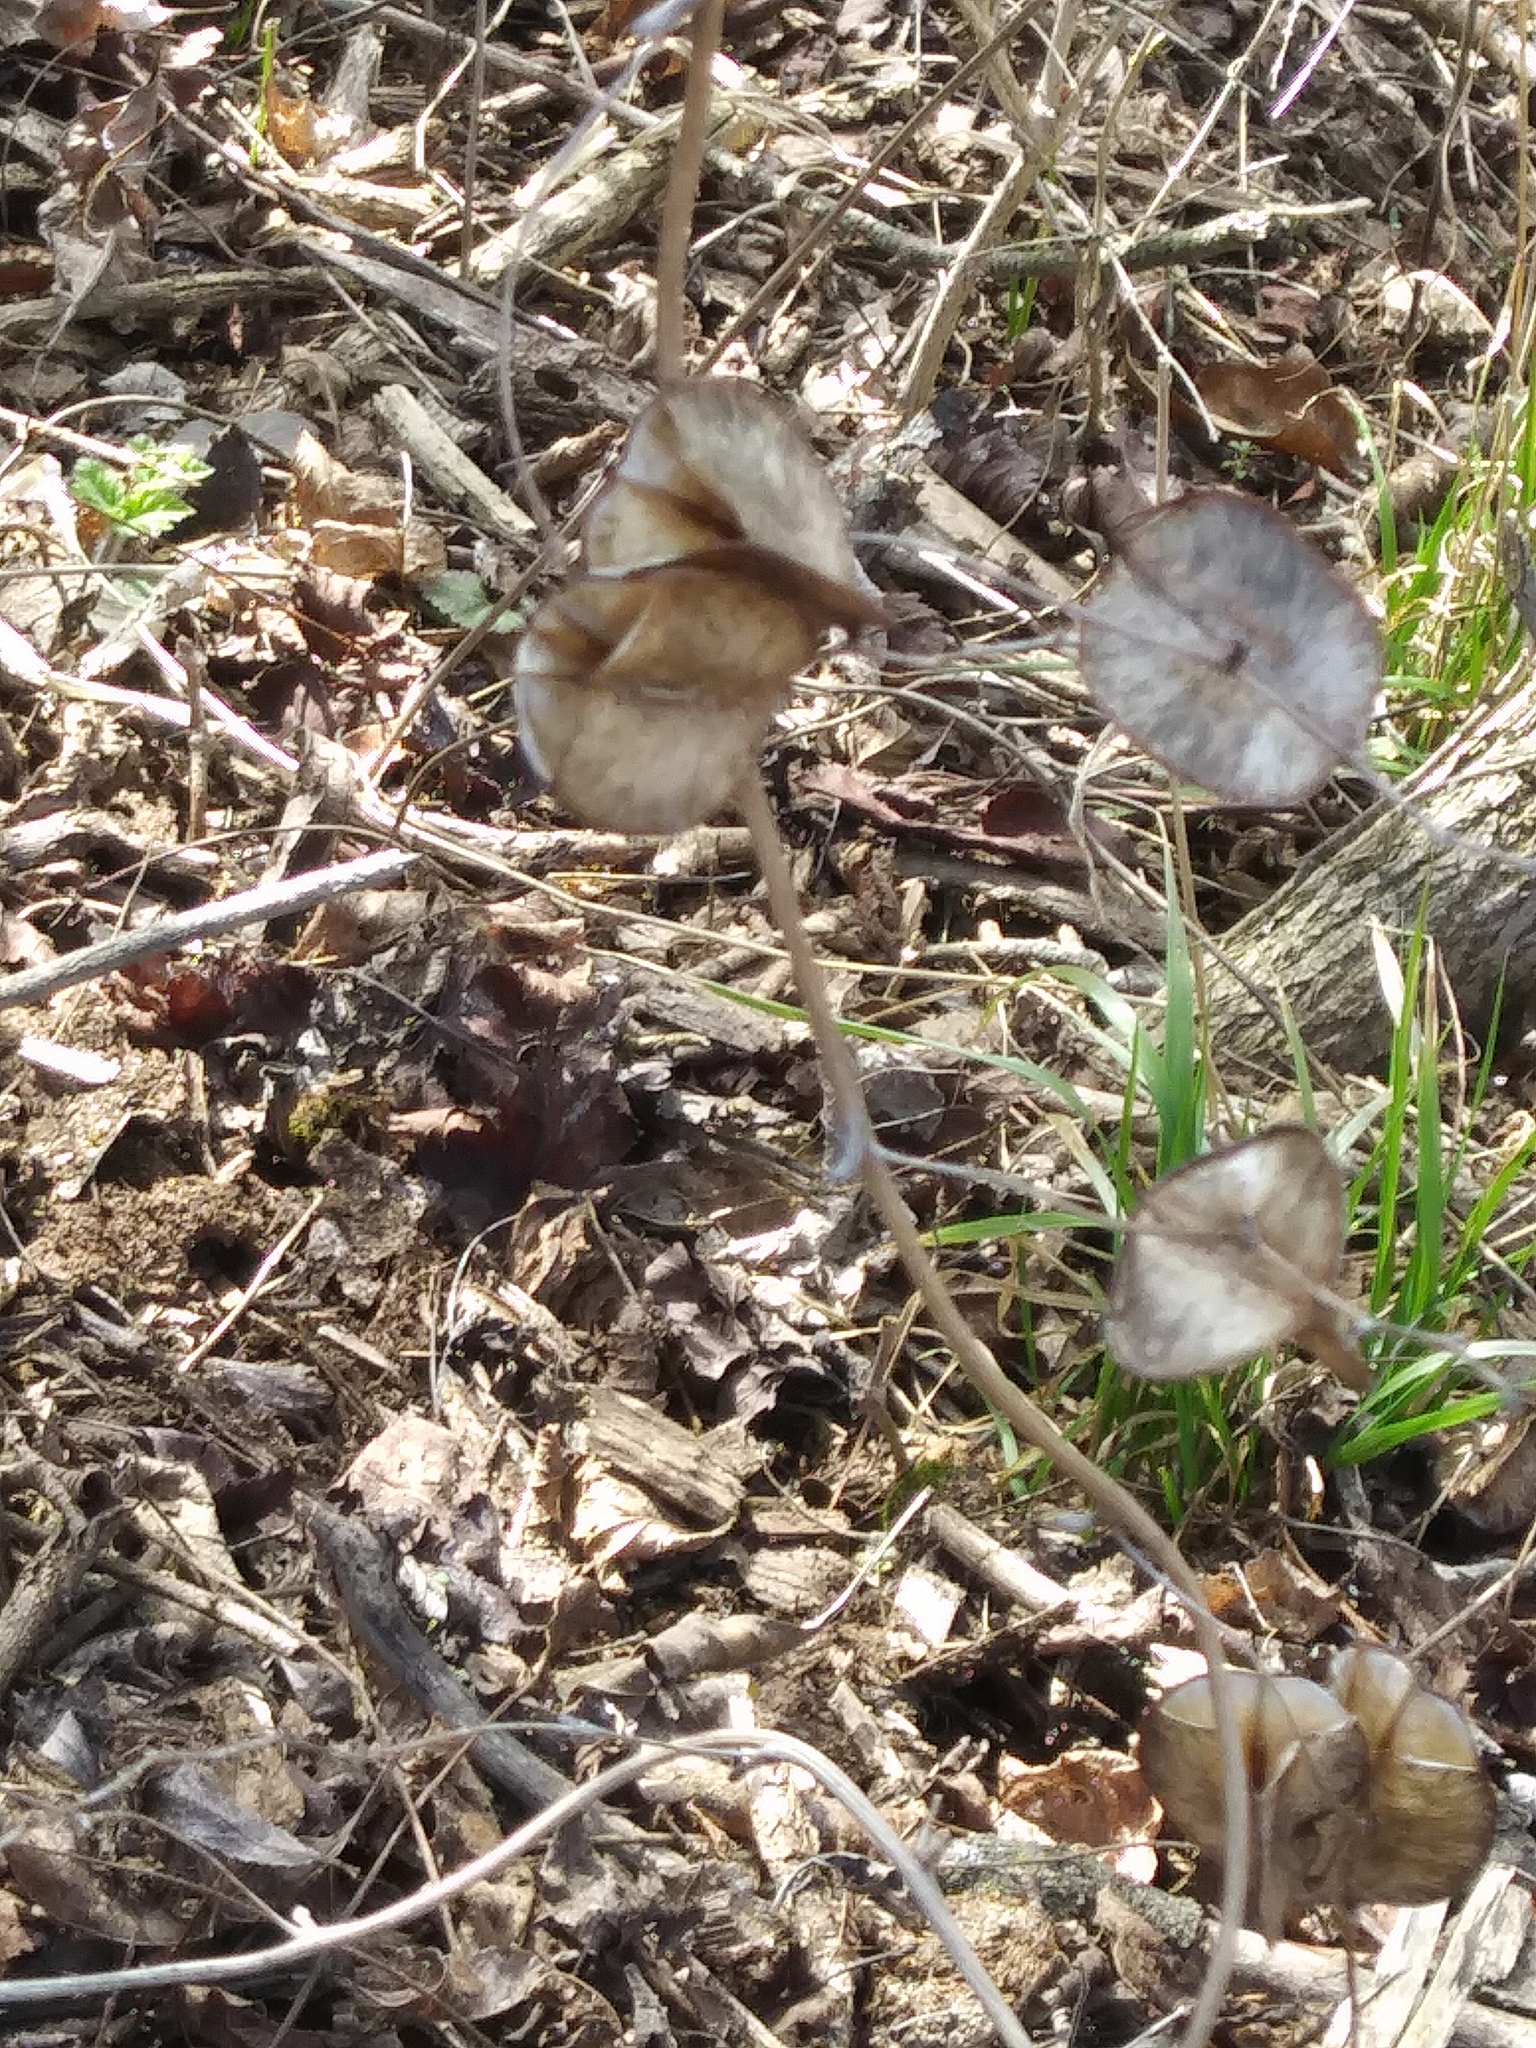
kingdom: Plantae
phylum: Tracheophyta
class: Liliopsida
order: Dioscoreales
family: Dioscoreaceae
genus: Dioscorea
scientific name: Dioscorea villosa
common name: Wild yam
